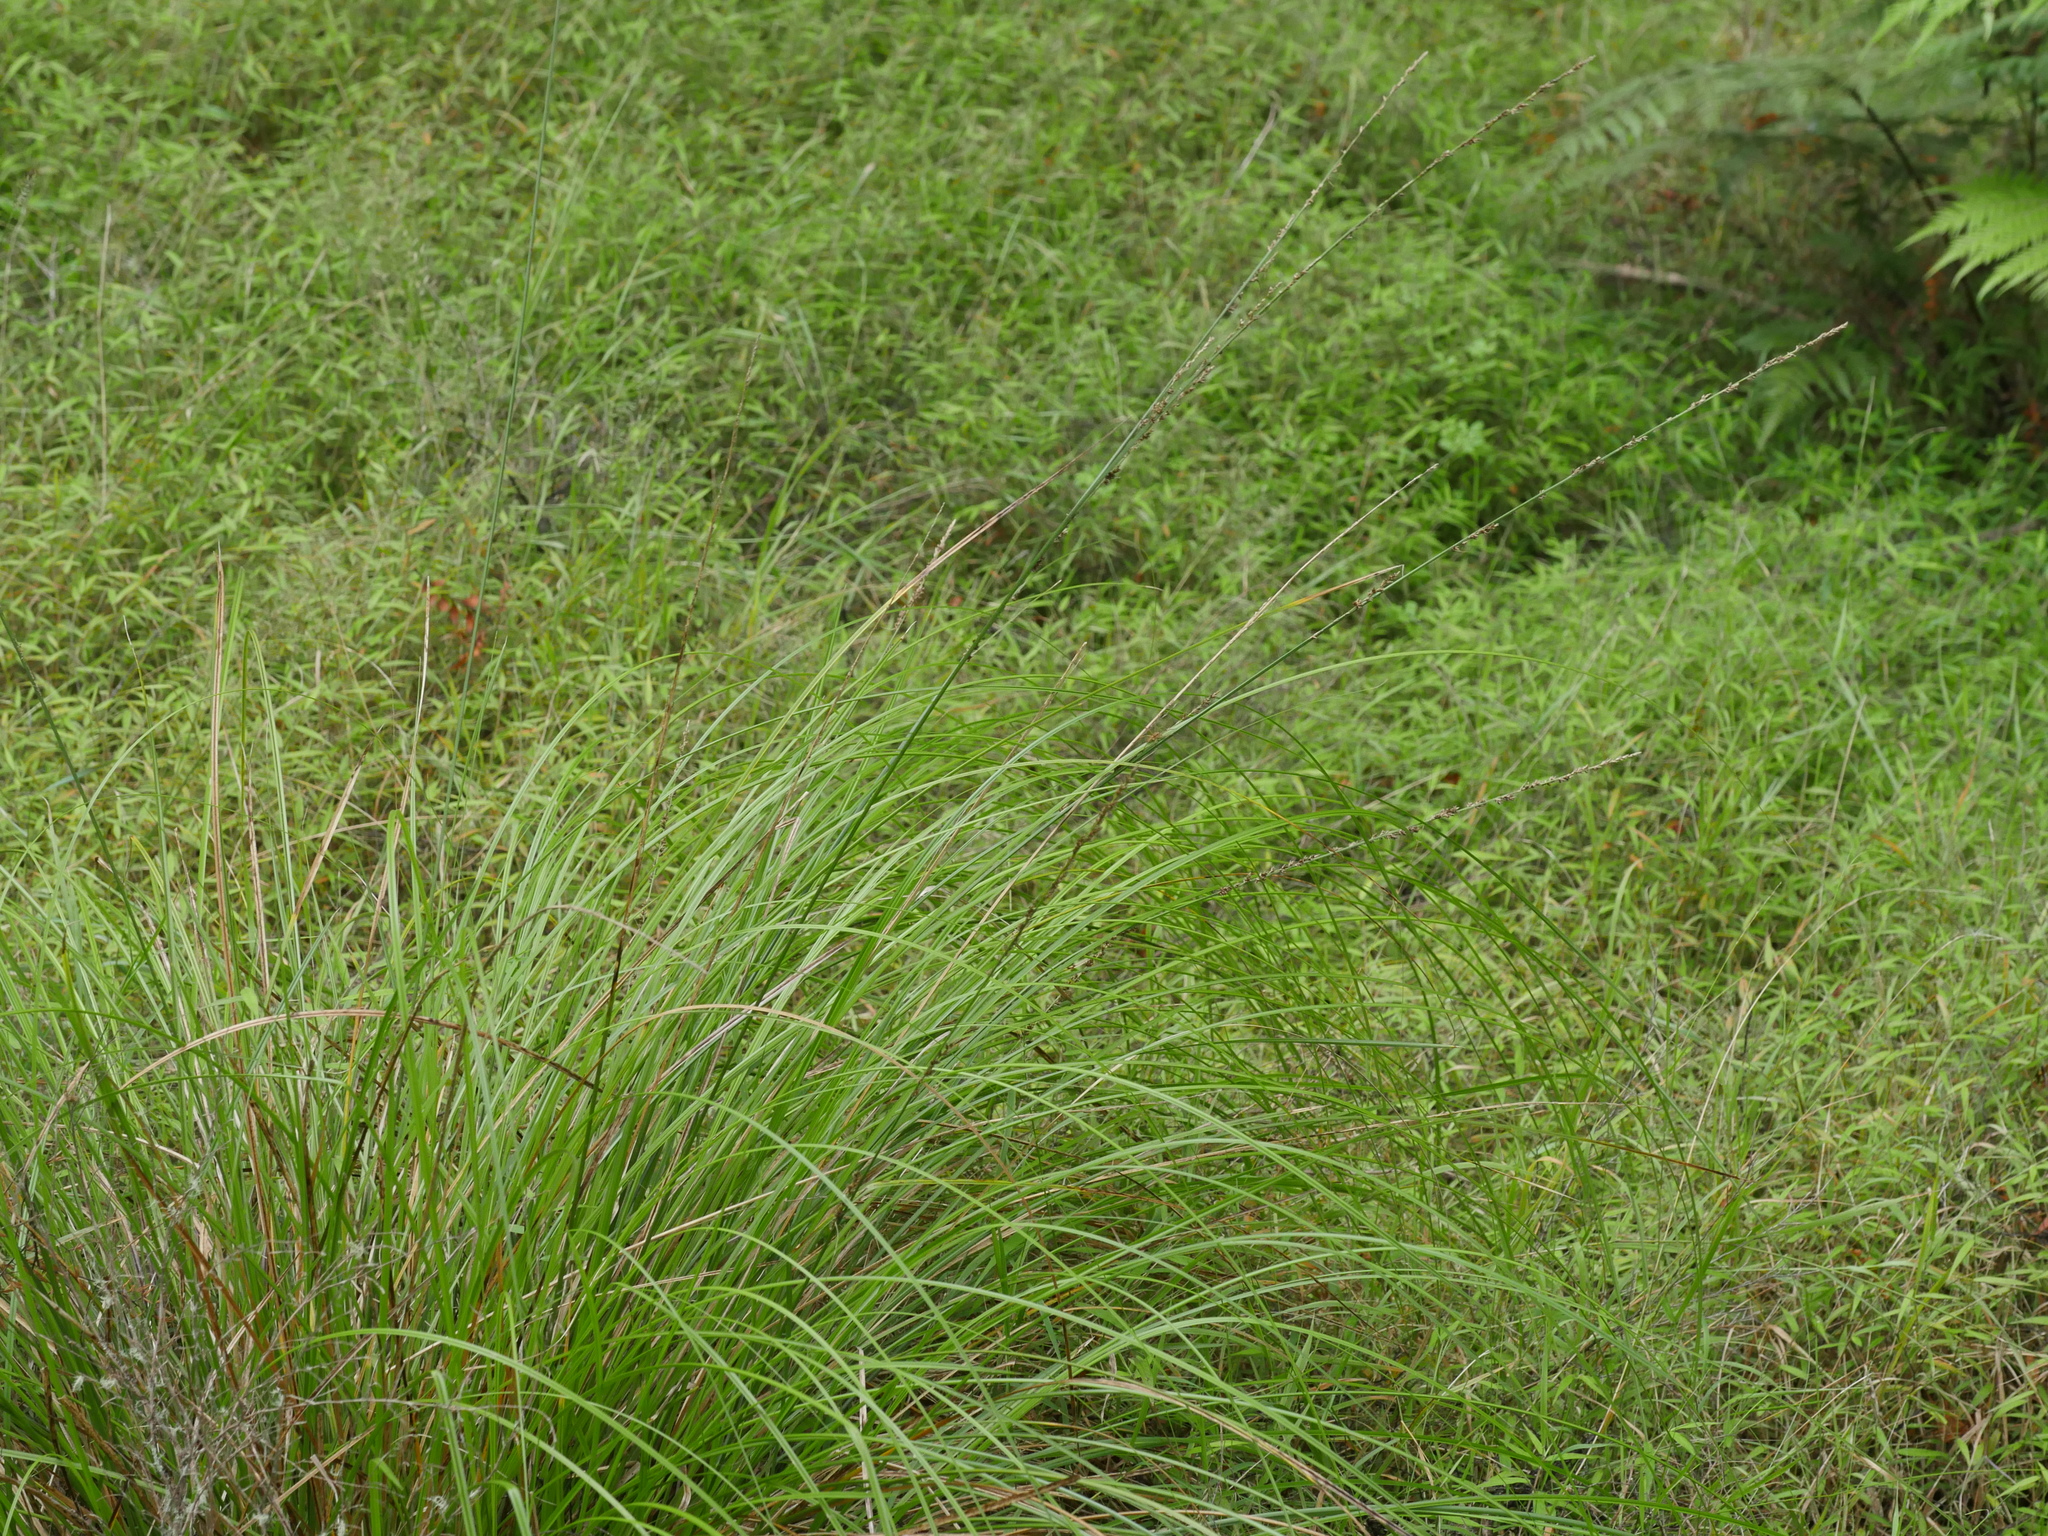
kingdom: Plantae
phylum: Tracheophyta
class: Liliopsida
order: Poales
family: Cyperaceae
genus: Carex
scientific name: Carex virgata
